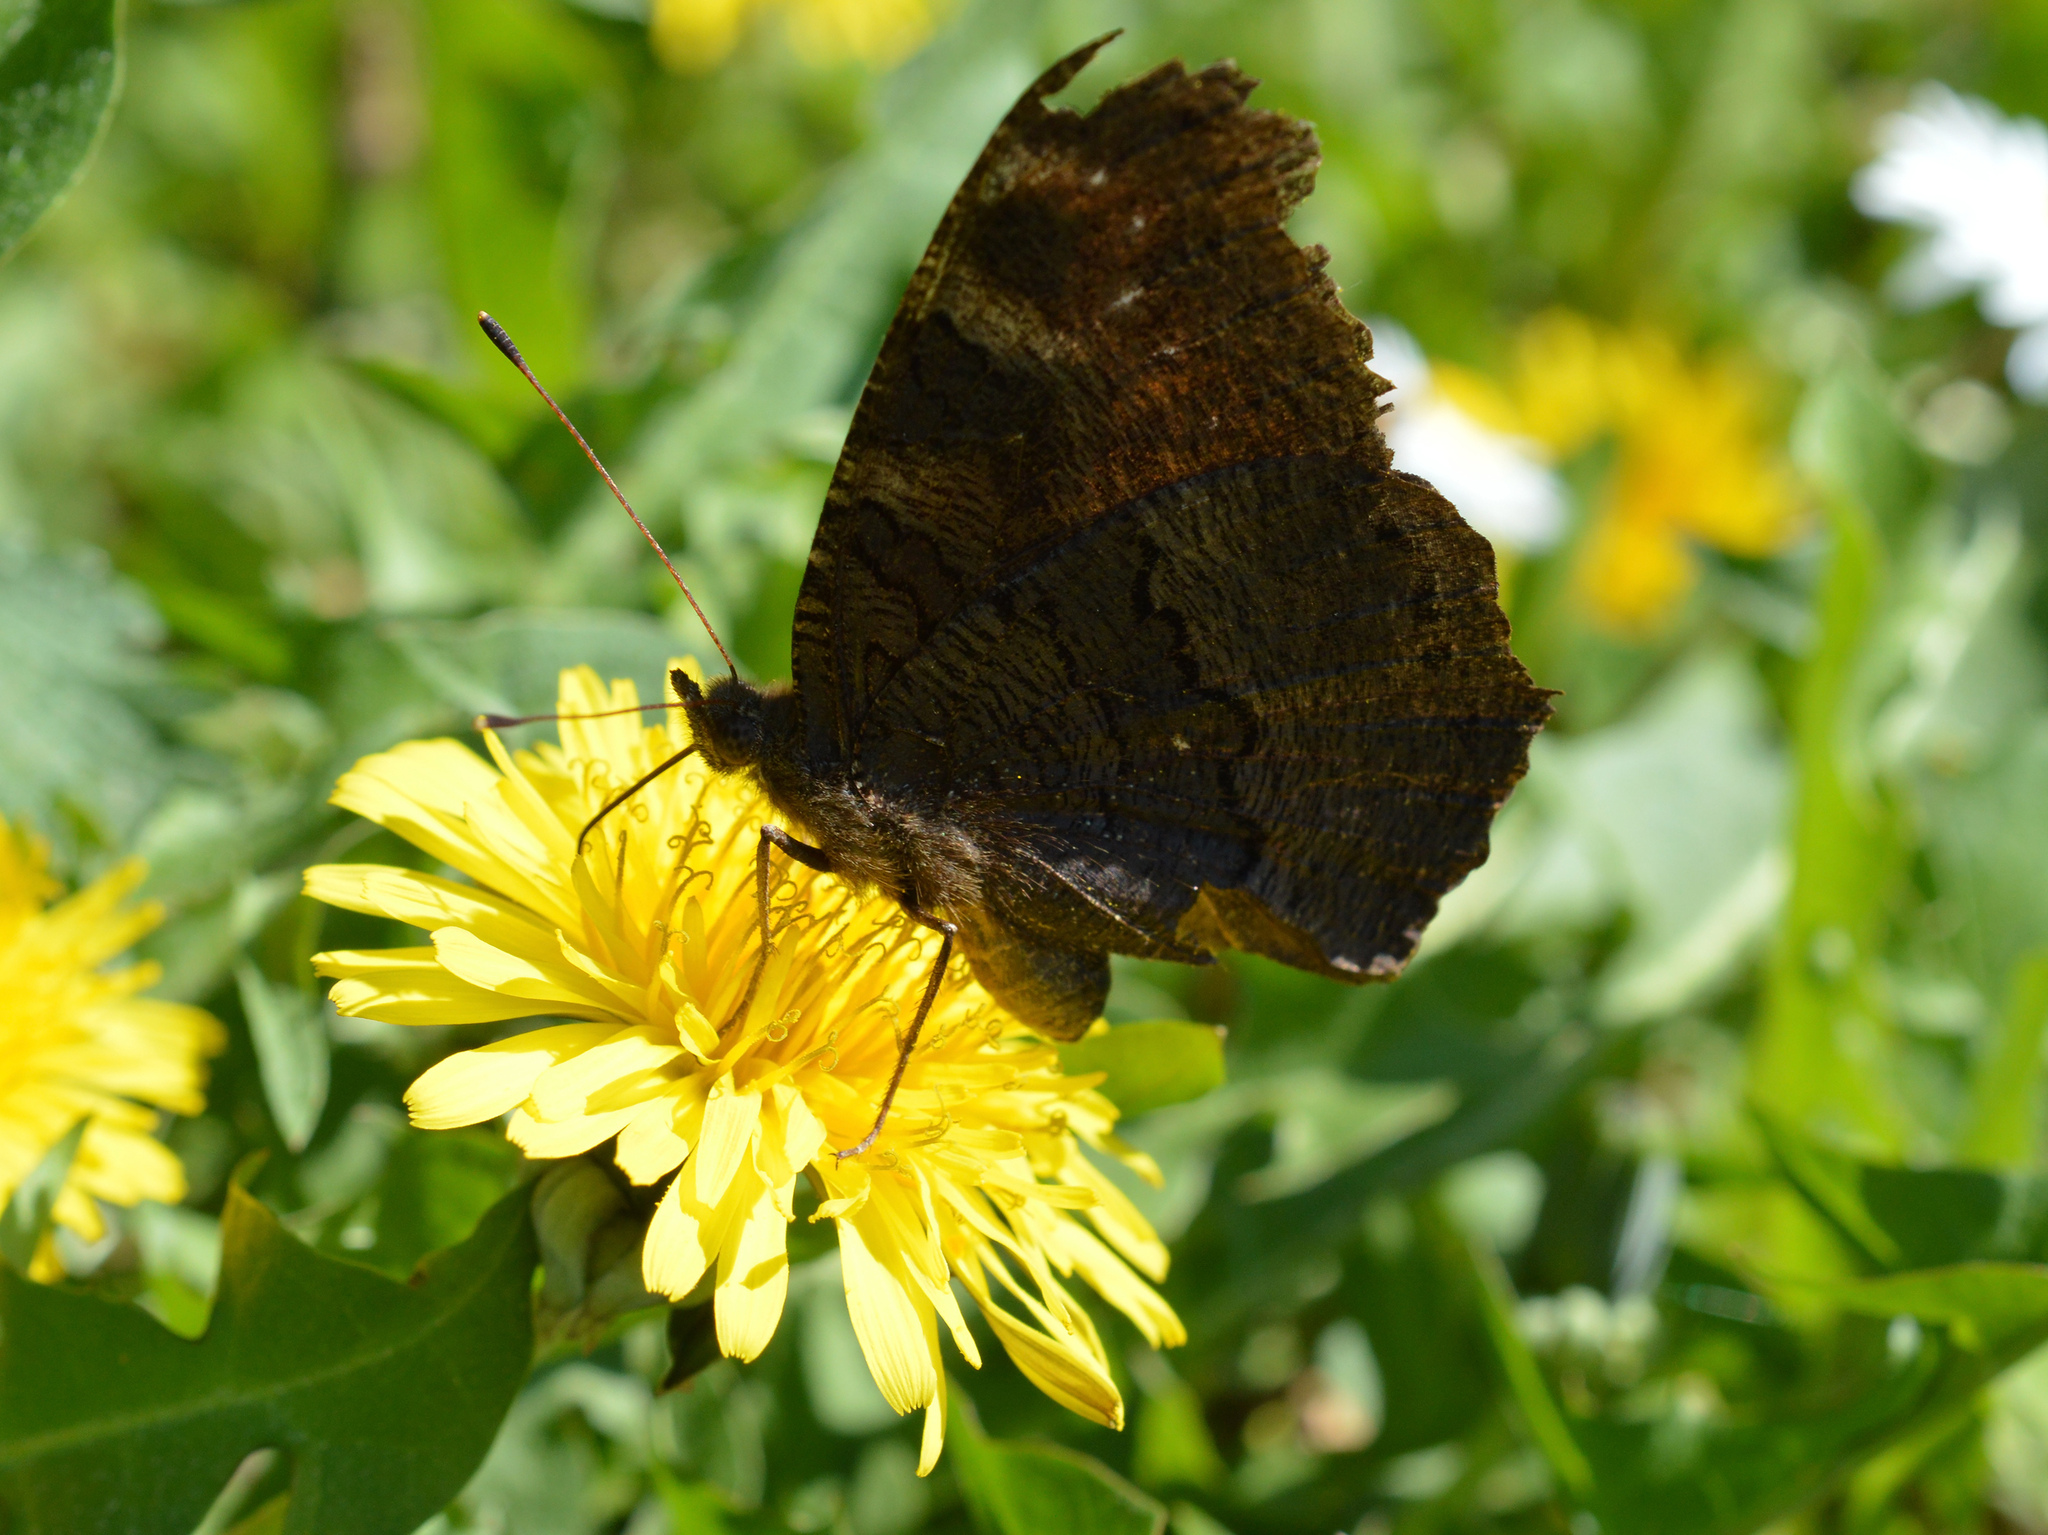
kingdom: Animalia
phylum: Arthropoda
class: Insecta
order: Lepidoptera
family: Nymphalidae
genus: Aglais
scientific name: Aglais io
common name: Peacock
